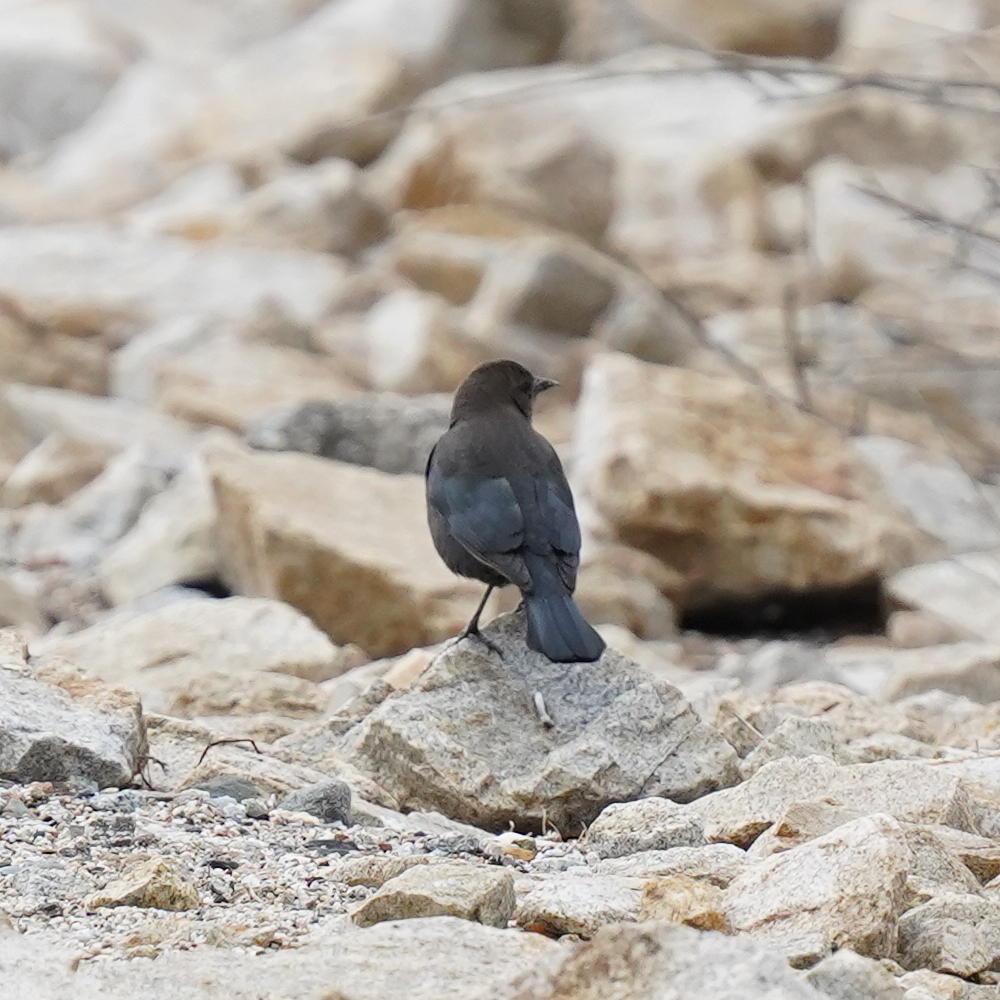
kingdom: Animalia
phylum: Chordata
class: Aves
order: Passeriformes
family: Icteridae
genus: Euphagus
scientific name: Euphagus cyanocephalus
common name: Brewer's blackbird
